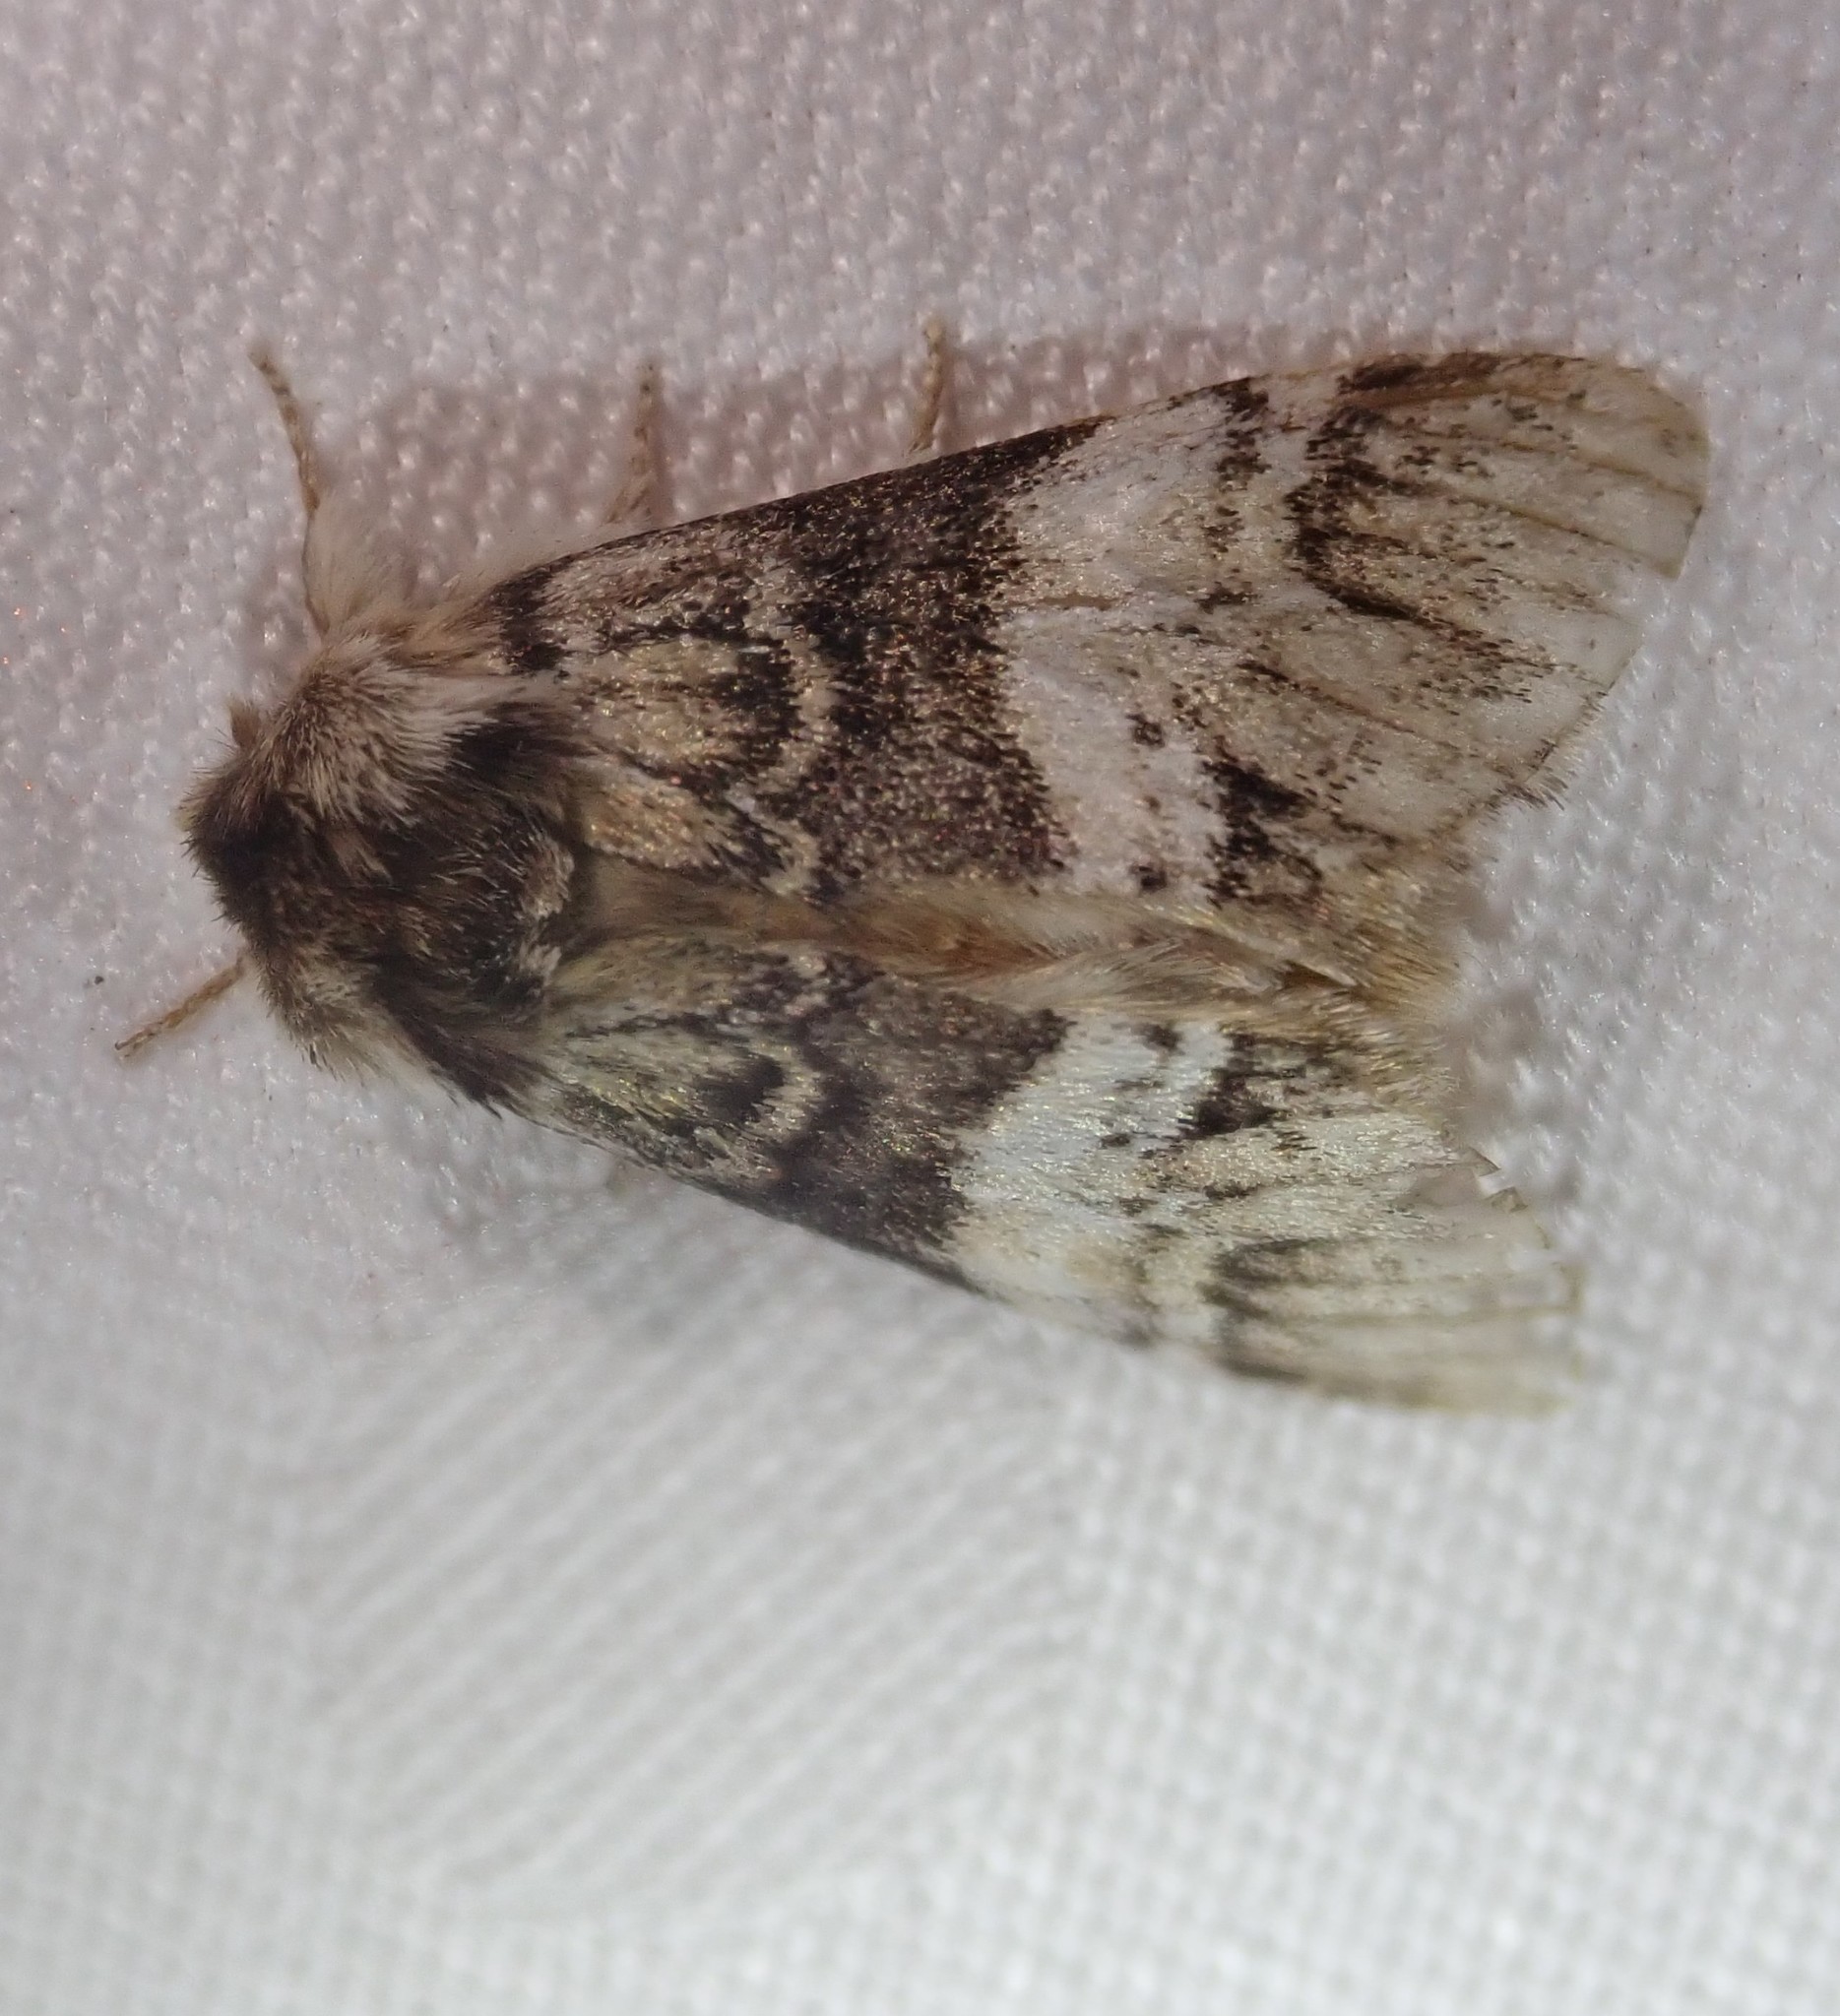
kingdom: Animalia
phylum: Arthropoda
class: Insecta
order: Lepidoptera
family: Notodontidae
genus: Drymonia
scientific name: Drymonia dodonaea
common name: Marbled brown
